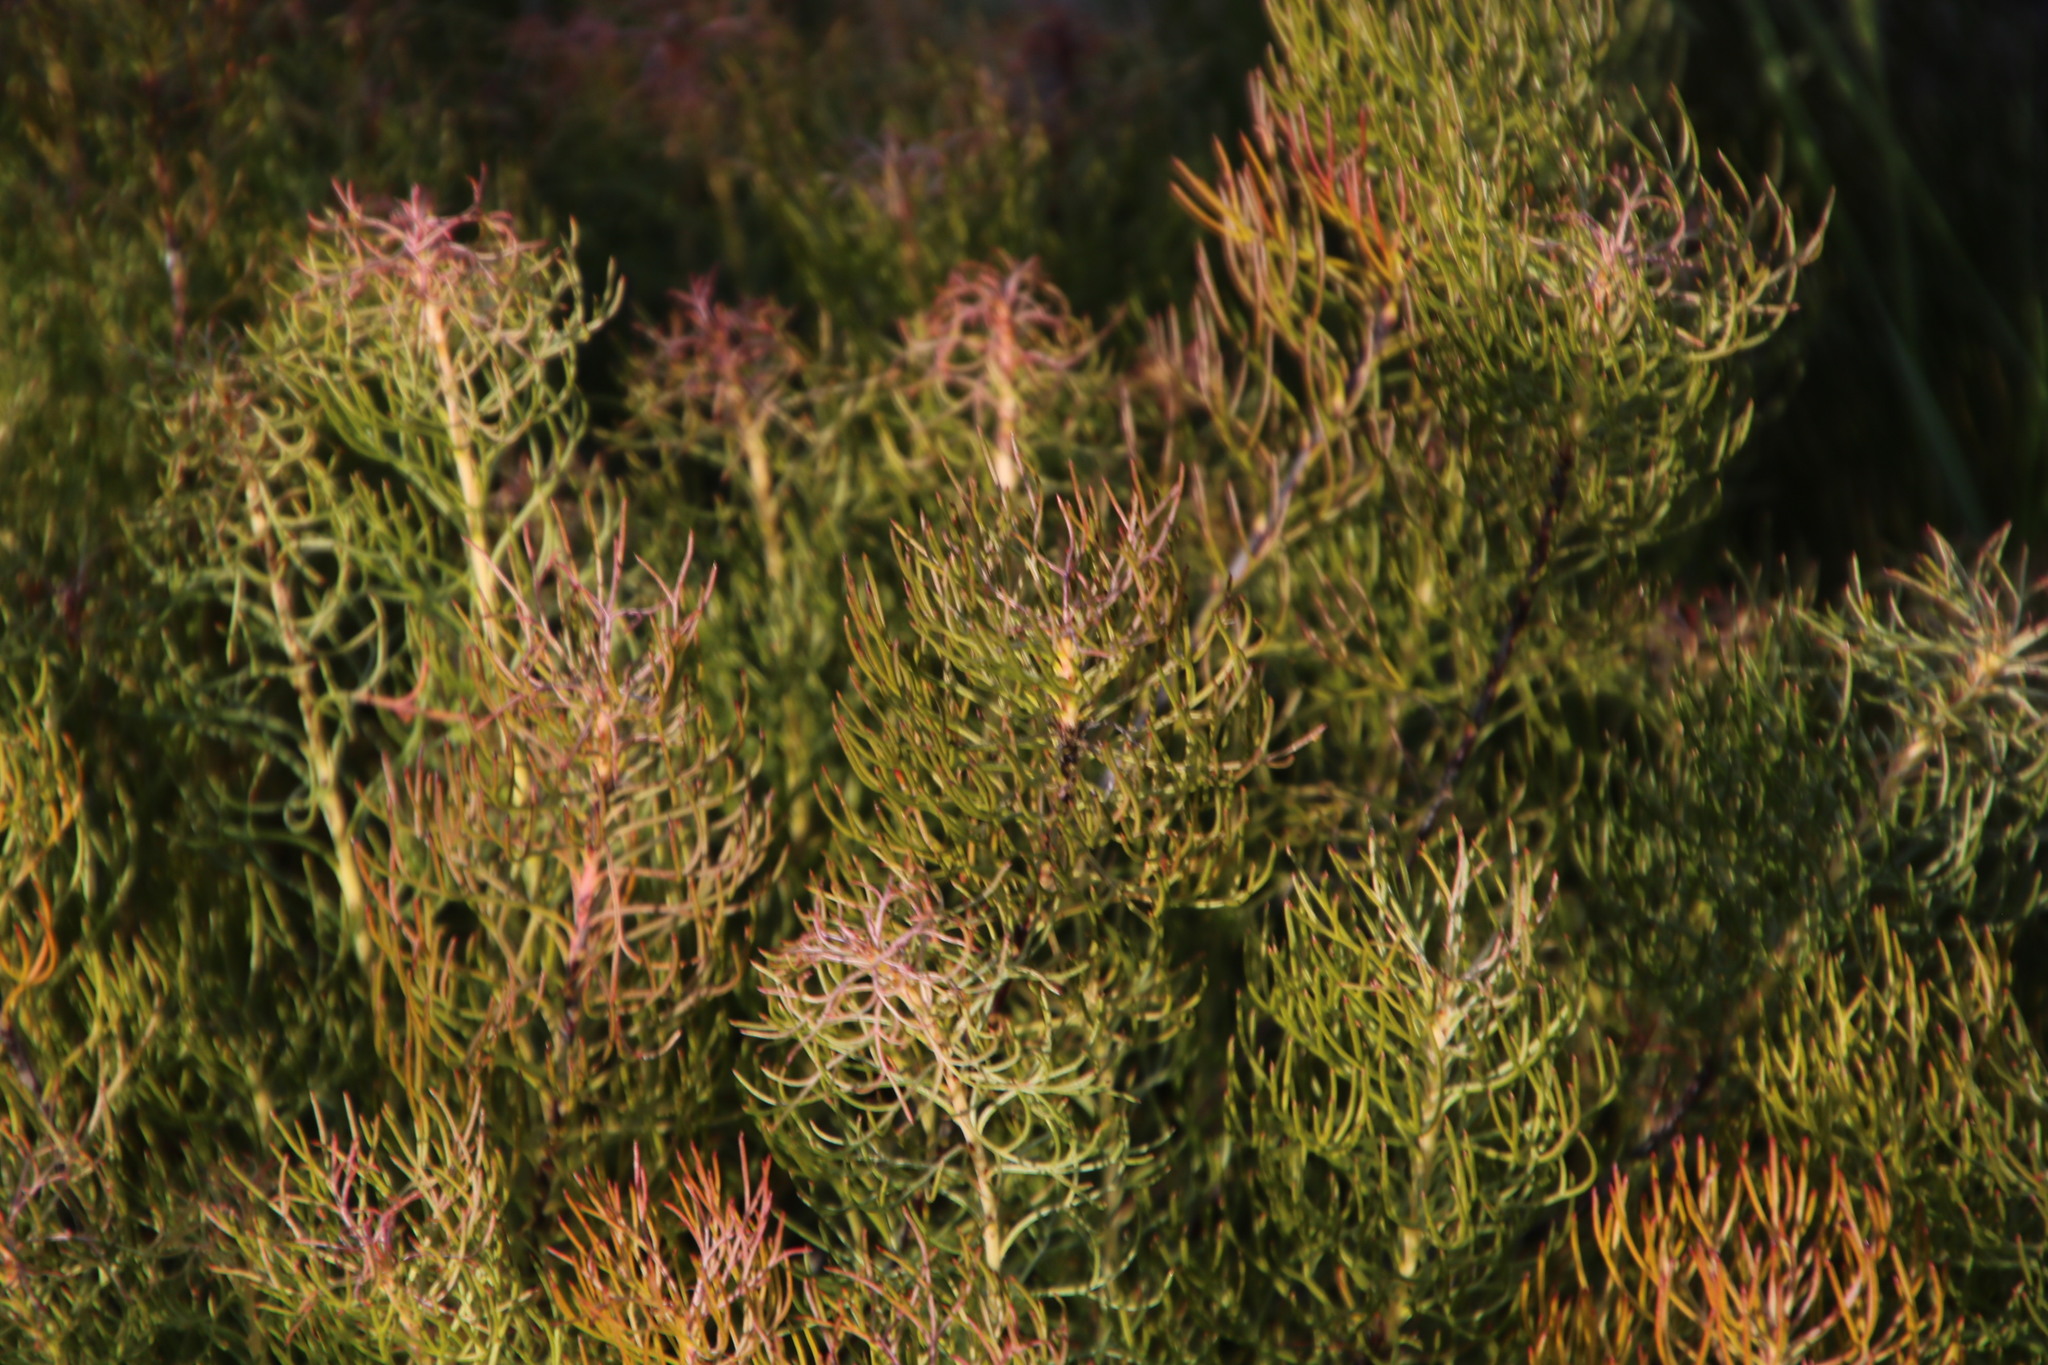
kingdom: Plantae
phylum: Tracheophyta
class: Magnoliopsida
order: Proteales
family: Proteaceae
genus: Serruria
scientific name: Serruria cyanoides
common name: Wynberg spiderhead
